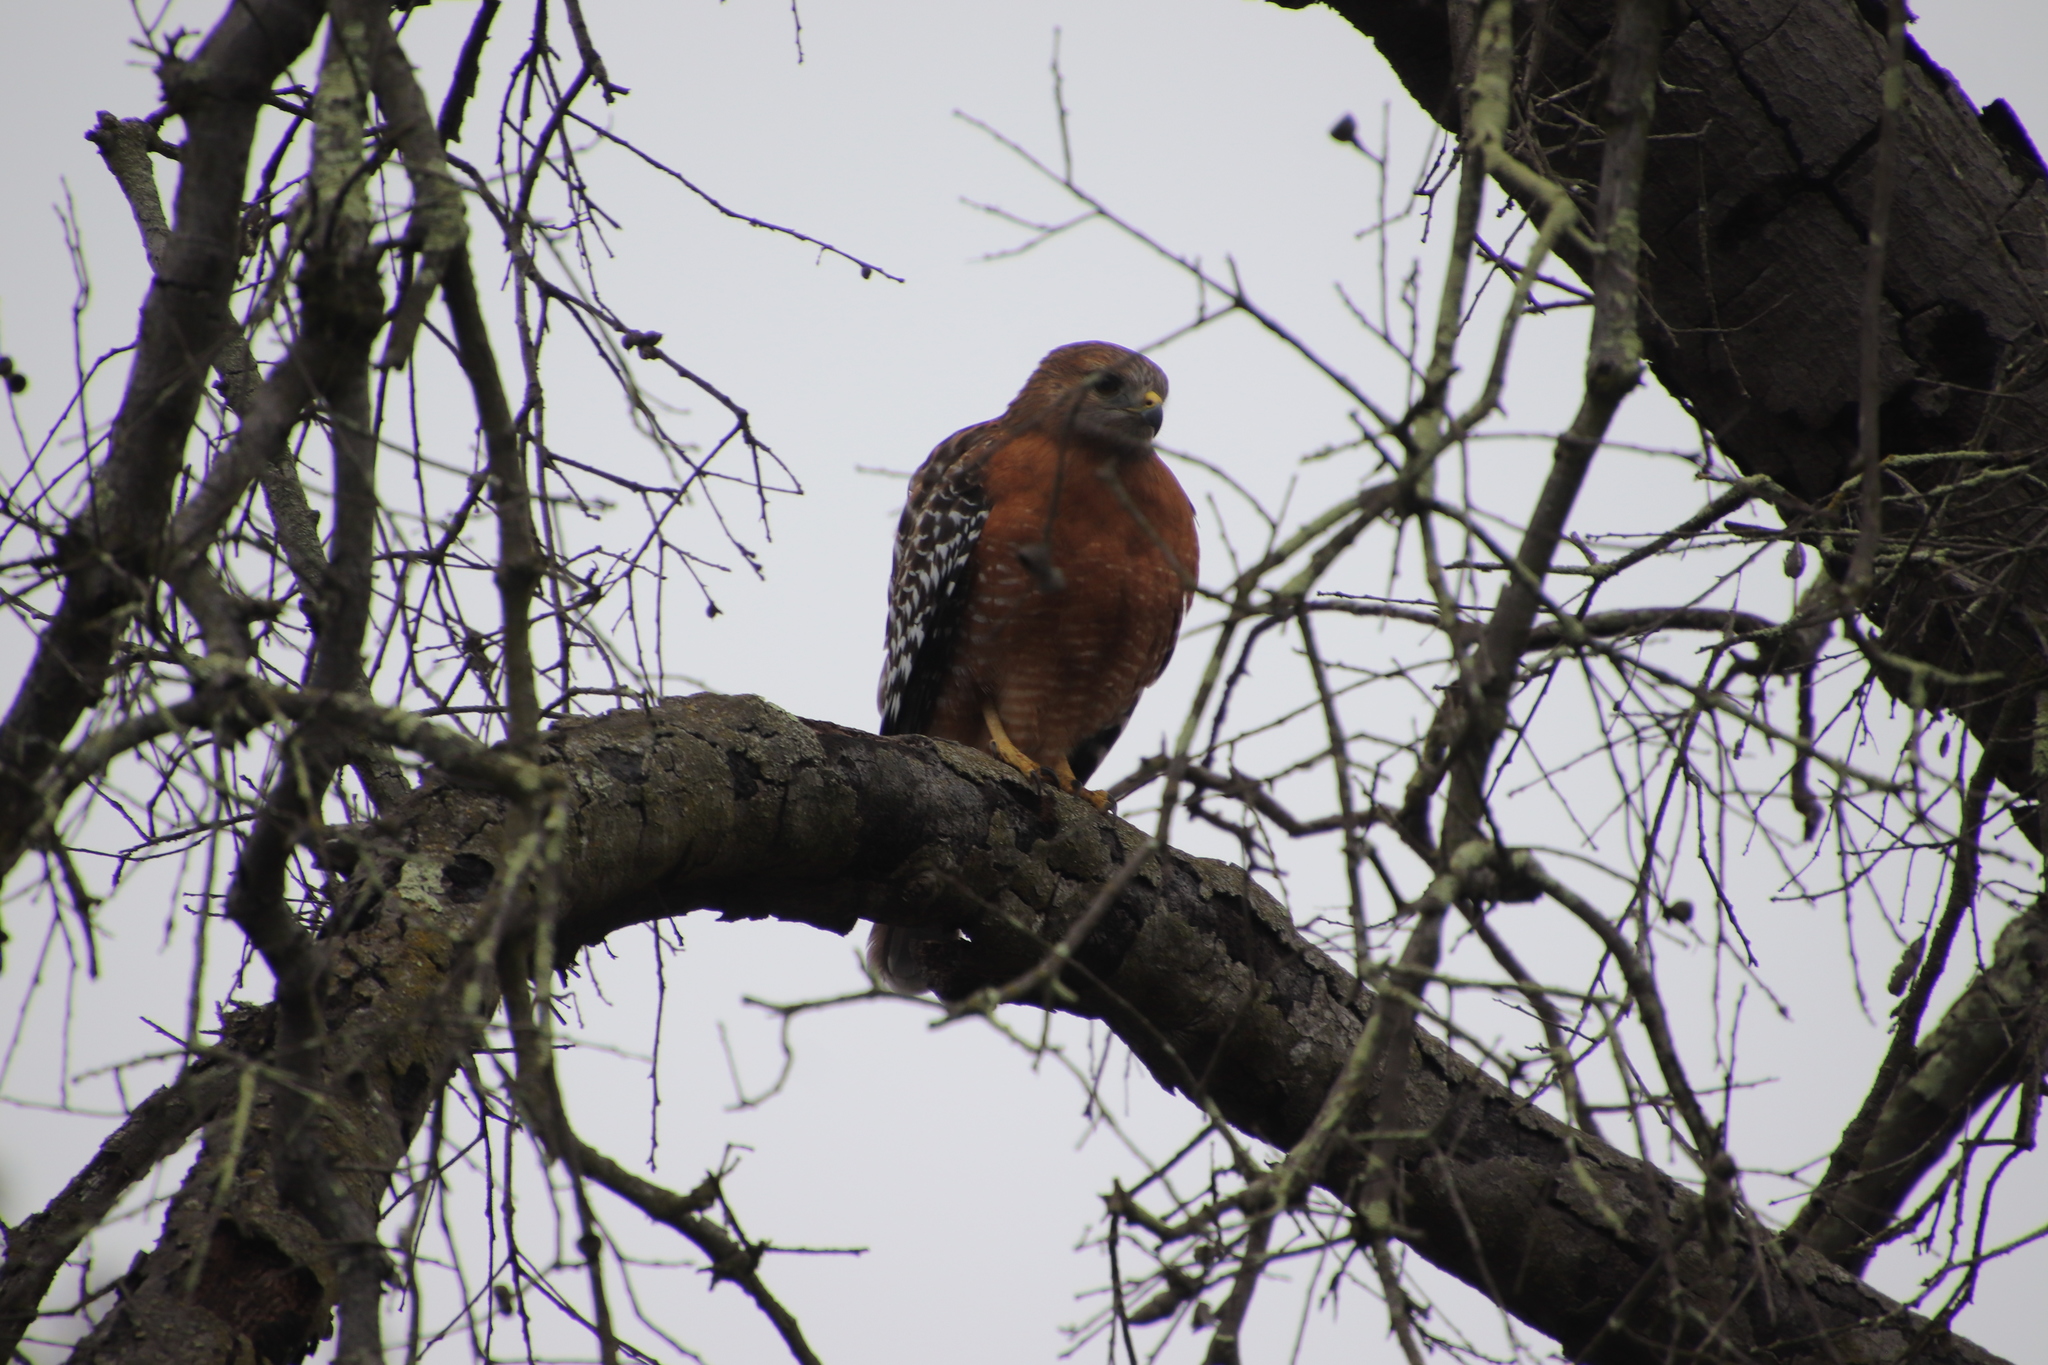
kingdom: Animalia
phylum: Chordata
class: Aves
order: Accipitriformes
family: Accipitridae
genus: Buteo
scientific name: Buteo lineatus
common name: Red-shouldered hawk
